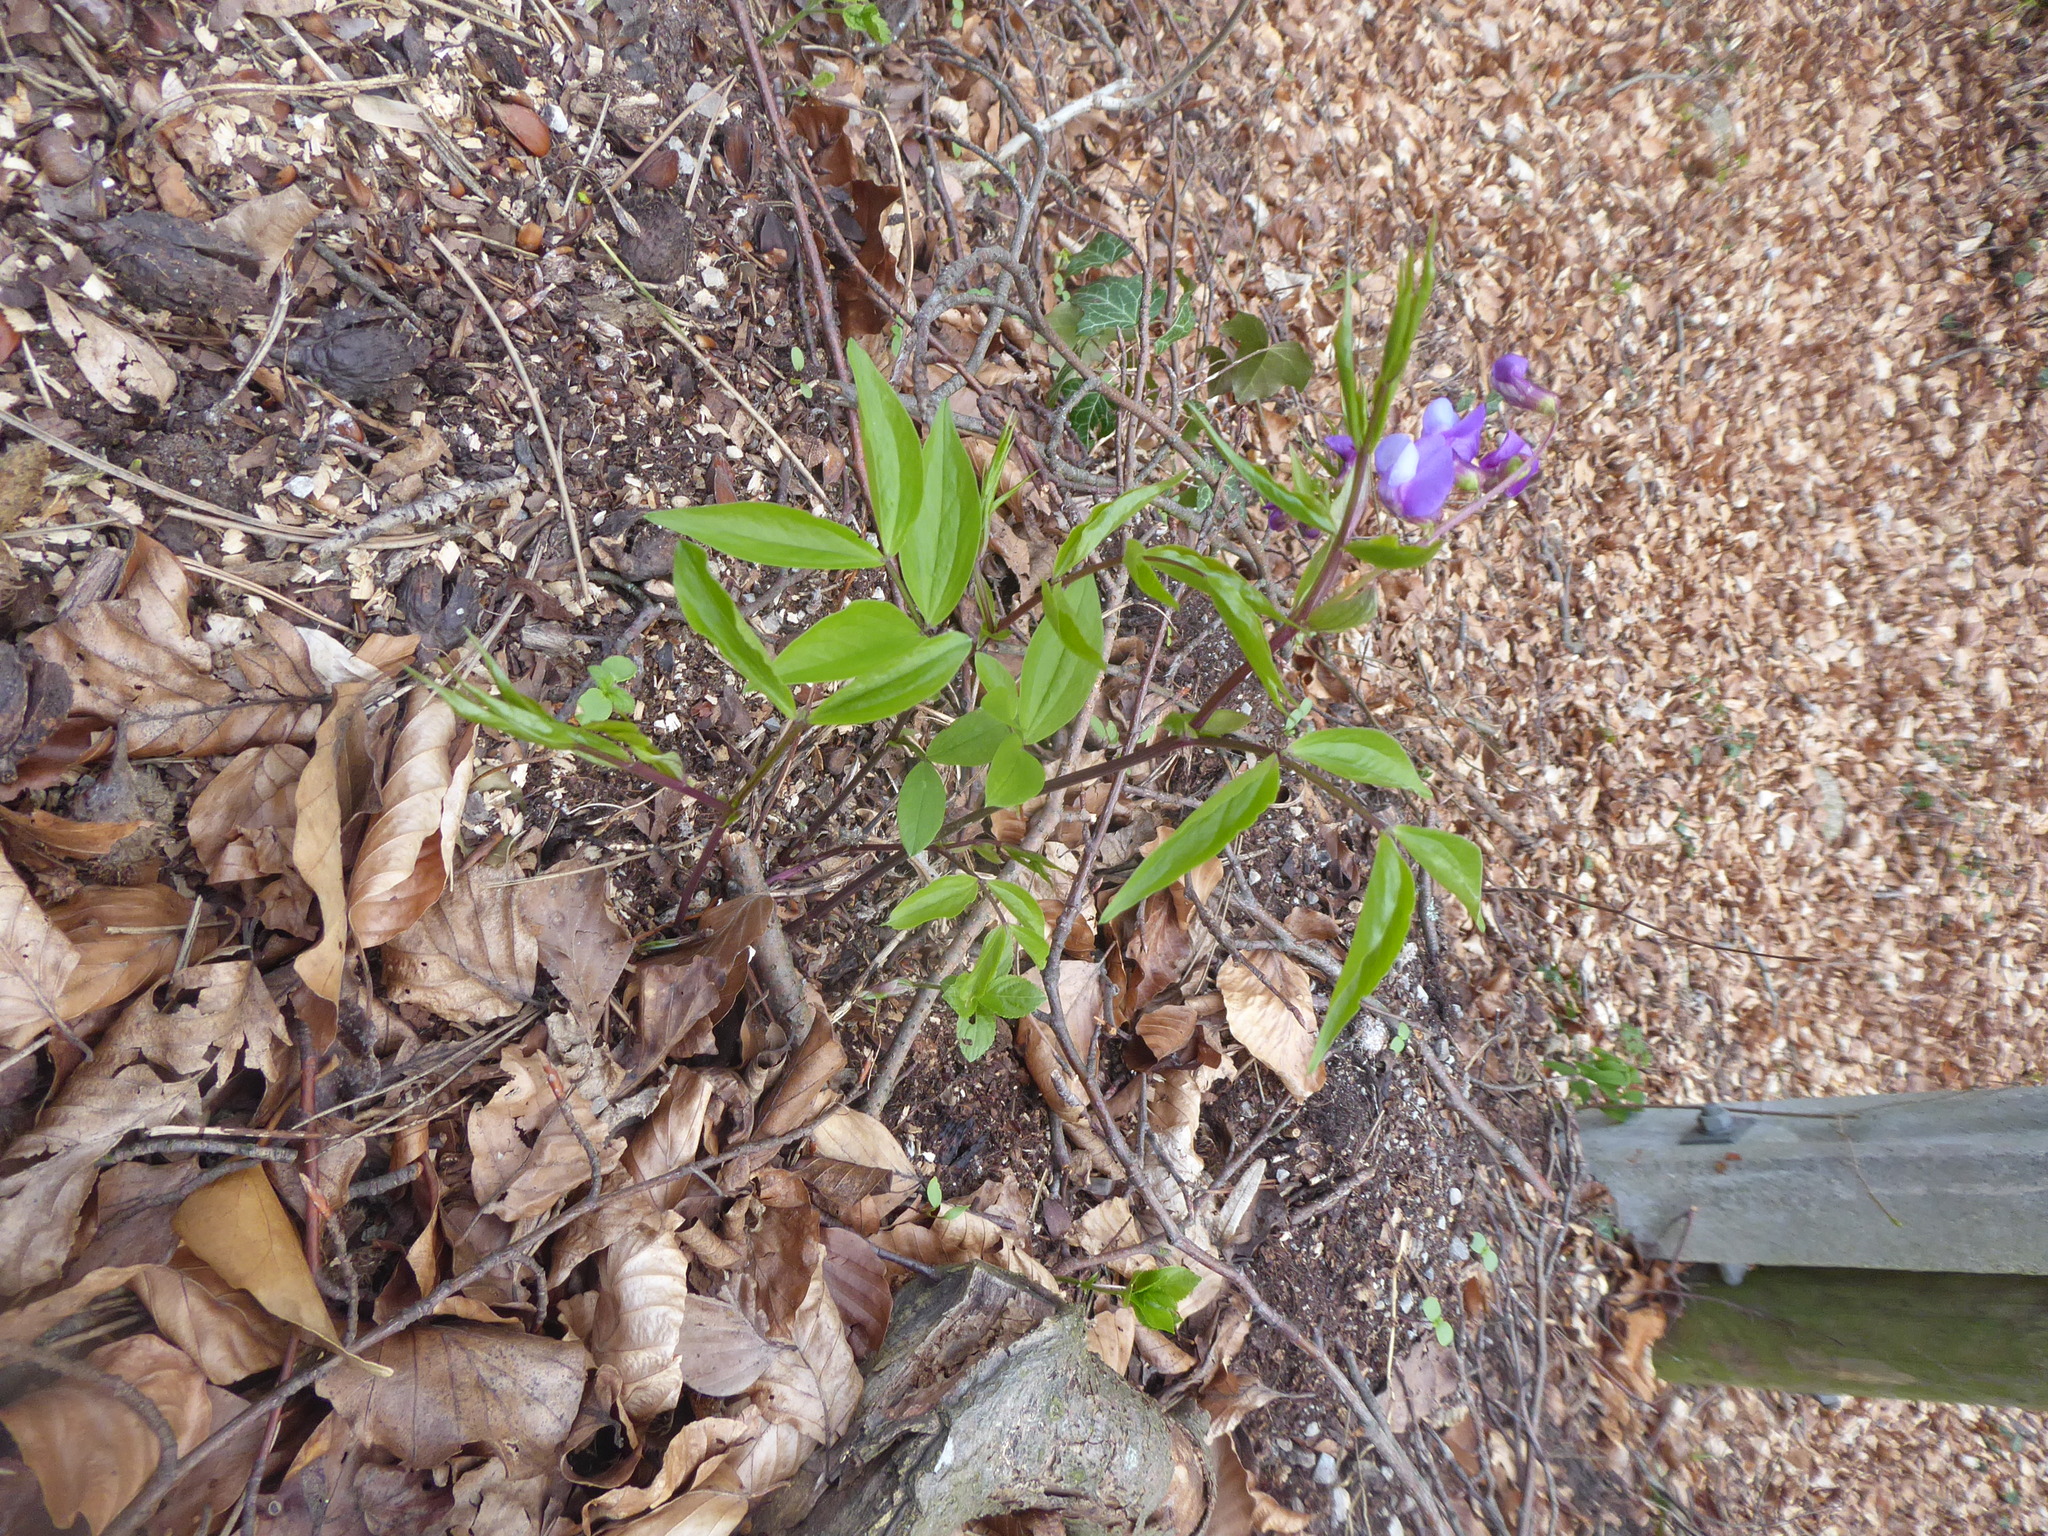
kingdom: Plantae
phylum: Tracheophyta
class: Magnoliopsida
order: Fabales
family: Fabaceae
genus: Lathyrus
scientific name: Lathyrus vernus
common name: Spring pea
